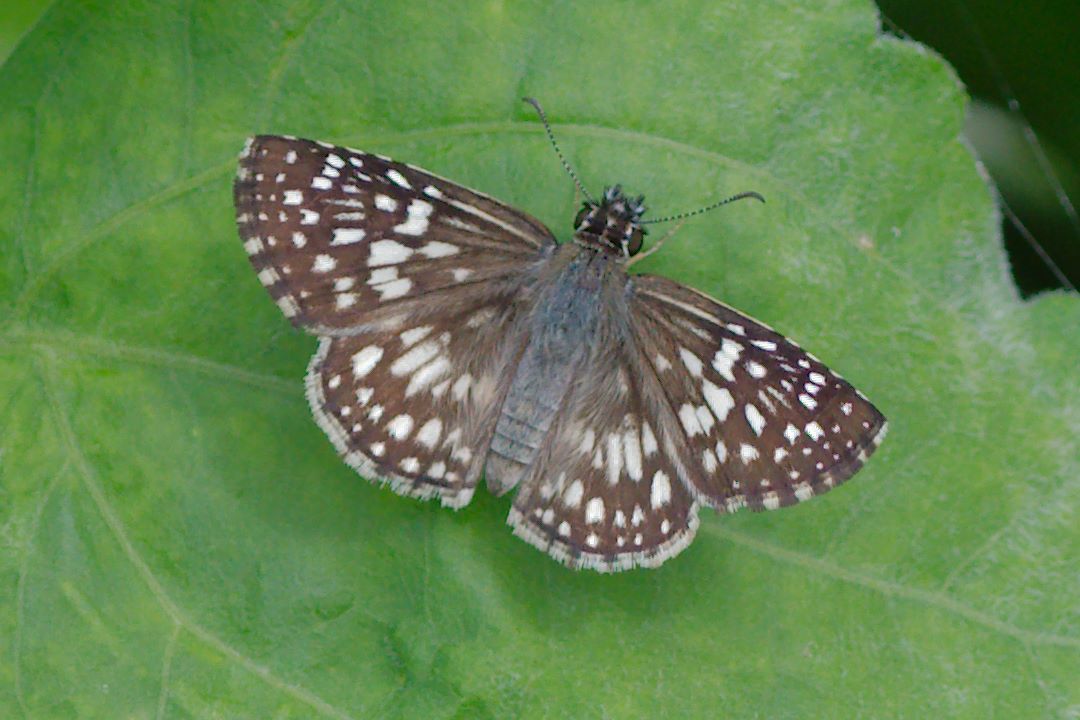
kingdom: Animalia
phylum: Arthropoda
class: Insecta
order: Lepidoptera
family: Hesperiidae
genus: Pyrgus
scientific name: Pyrgus oileus
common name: Tropical checkered-skipper
